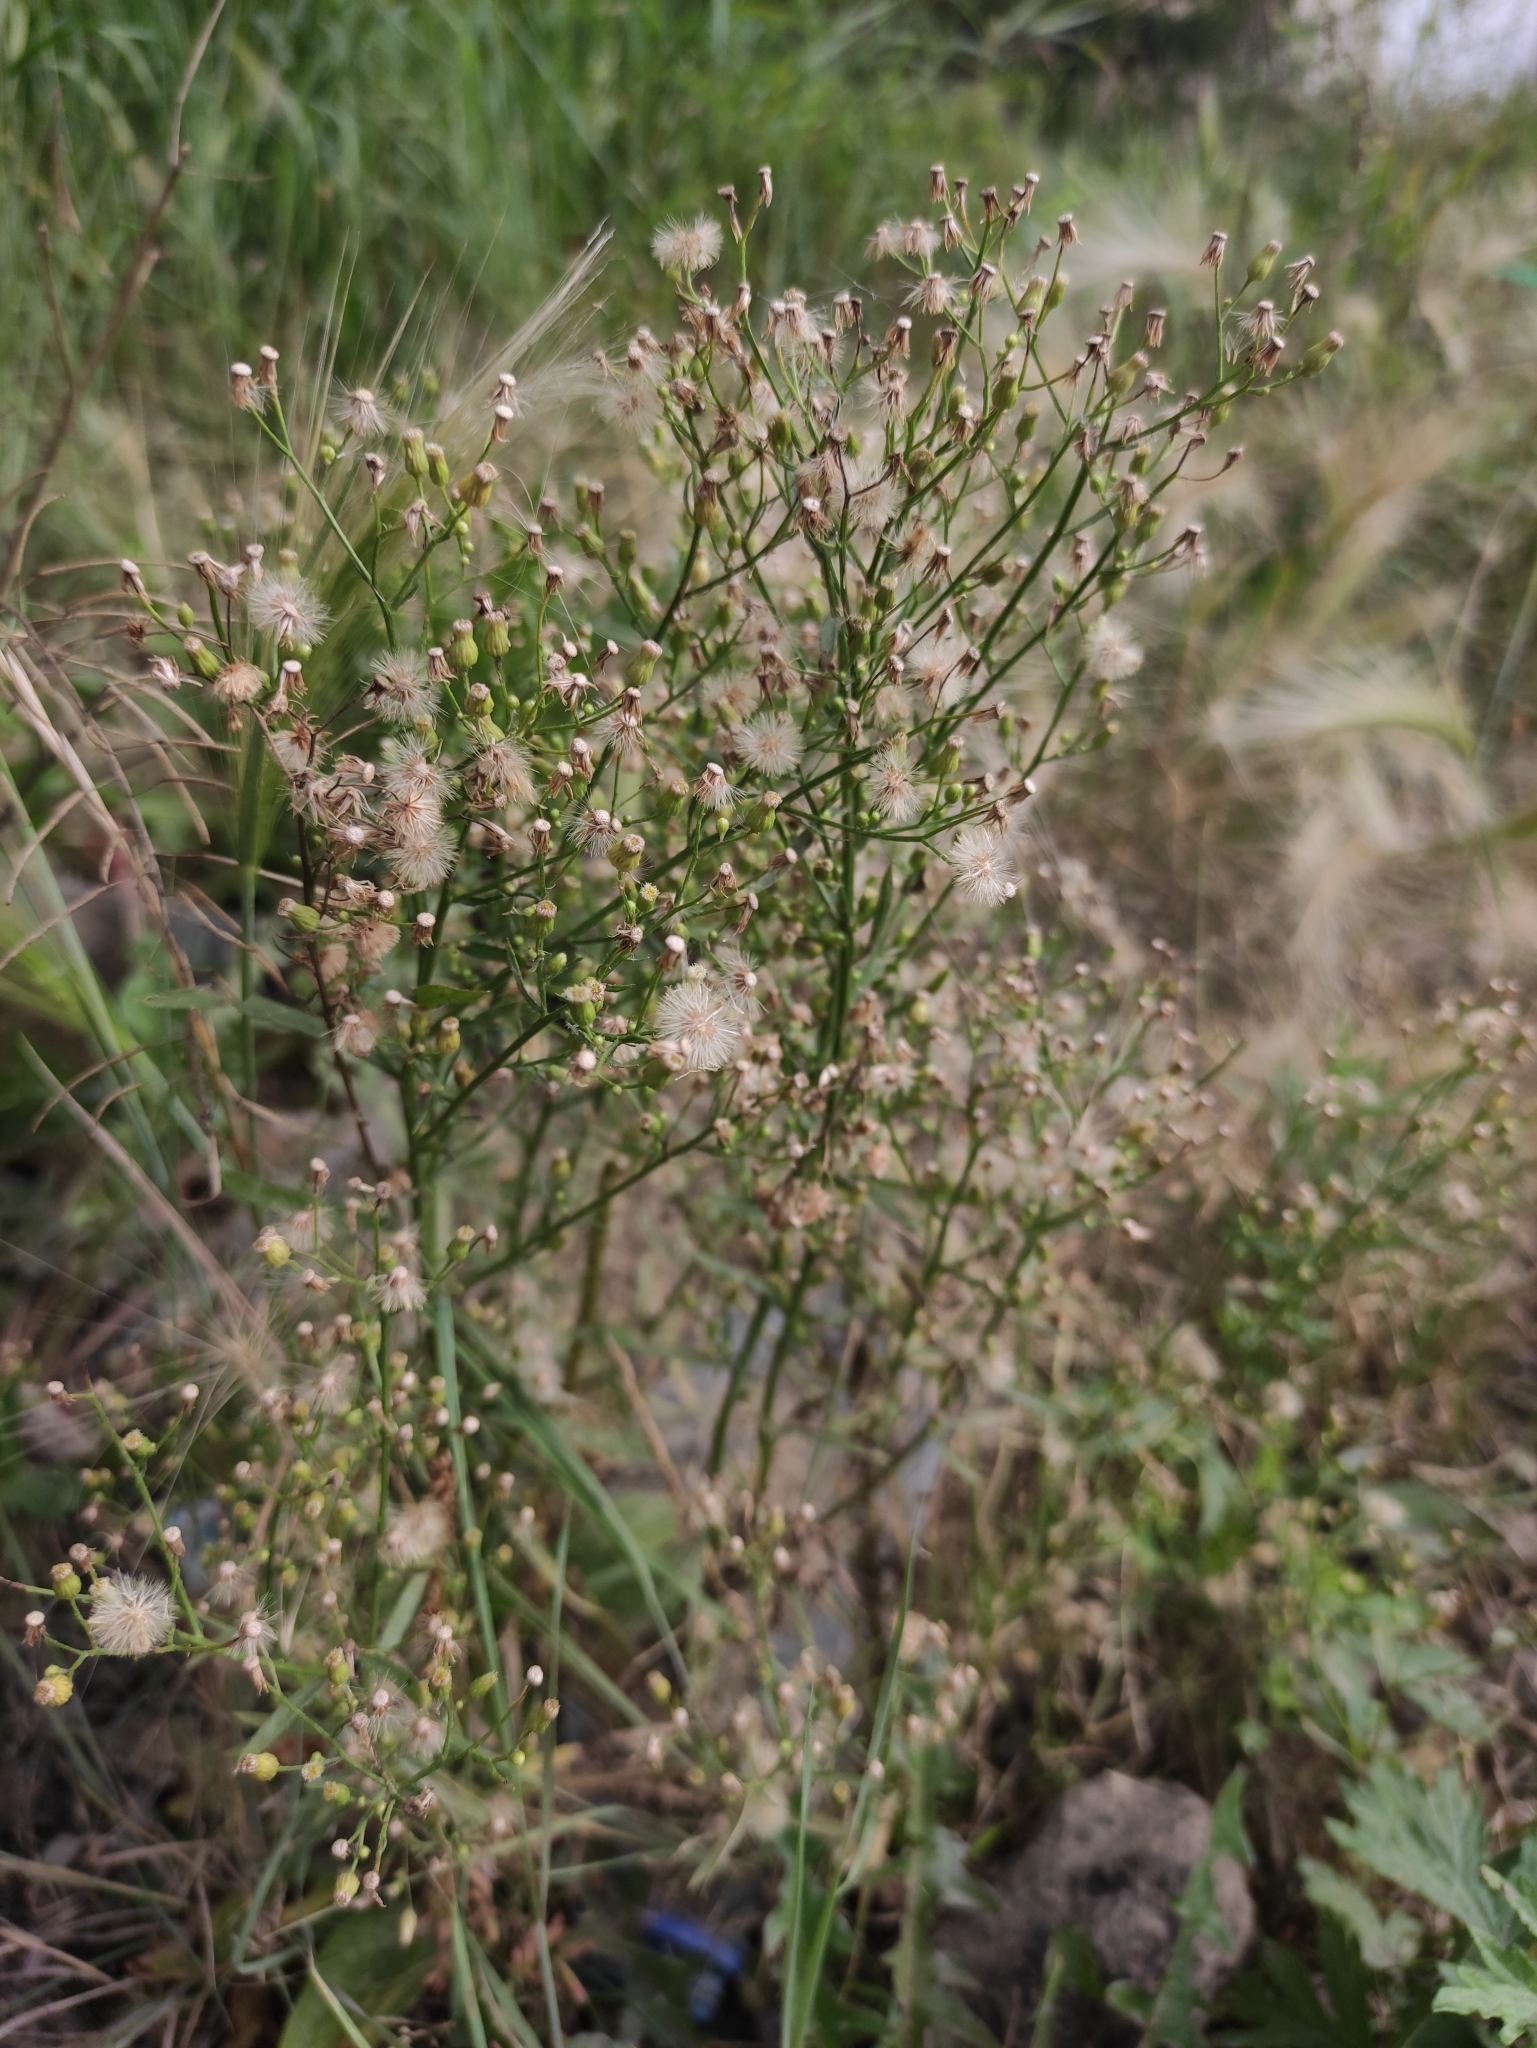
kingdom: Plantae
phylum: Tracheophyta
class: Magnoliopsida
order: Asterales
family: Asteraceae
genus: Erigeron
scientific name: Erigeron canadensis
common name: Canadian fleabane
